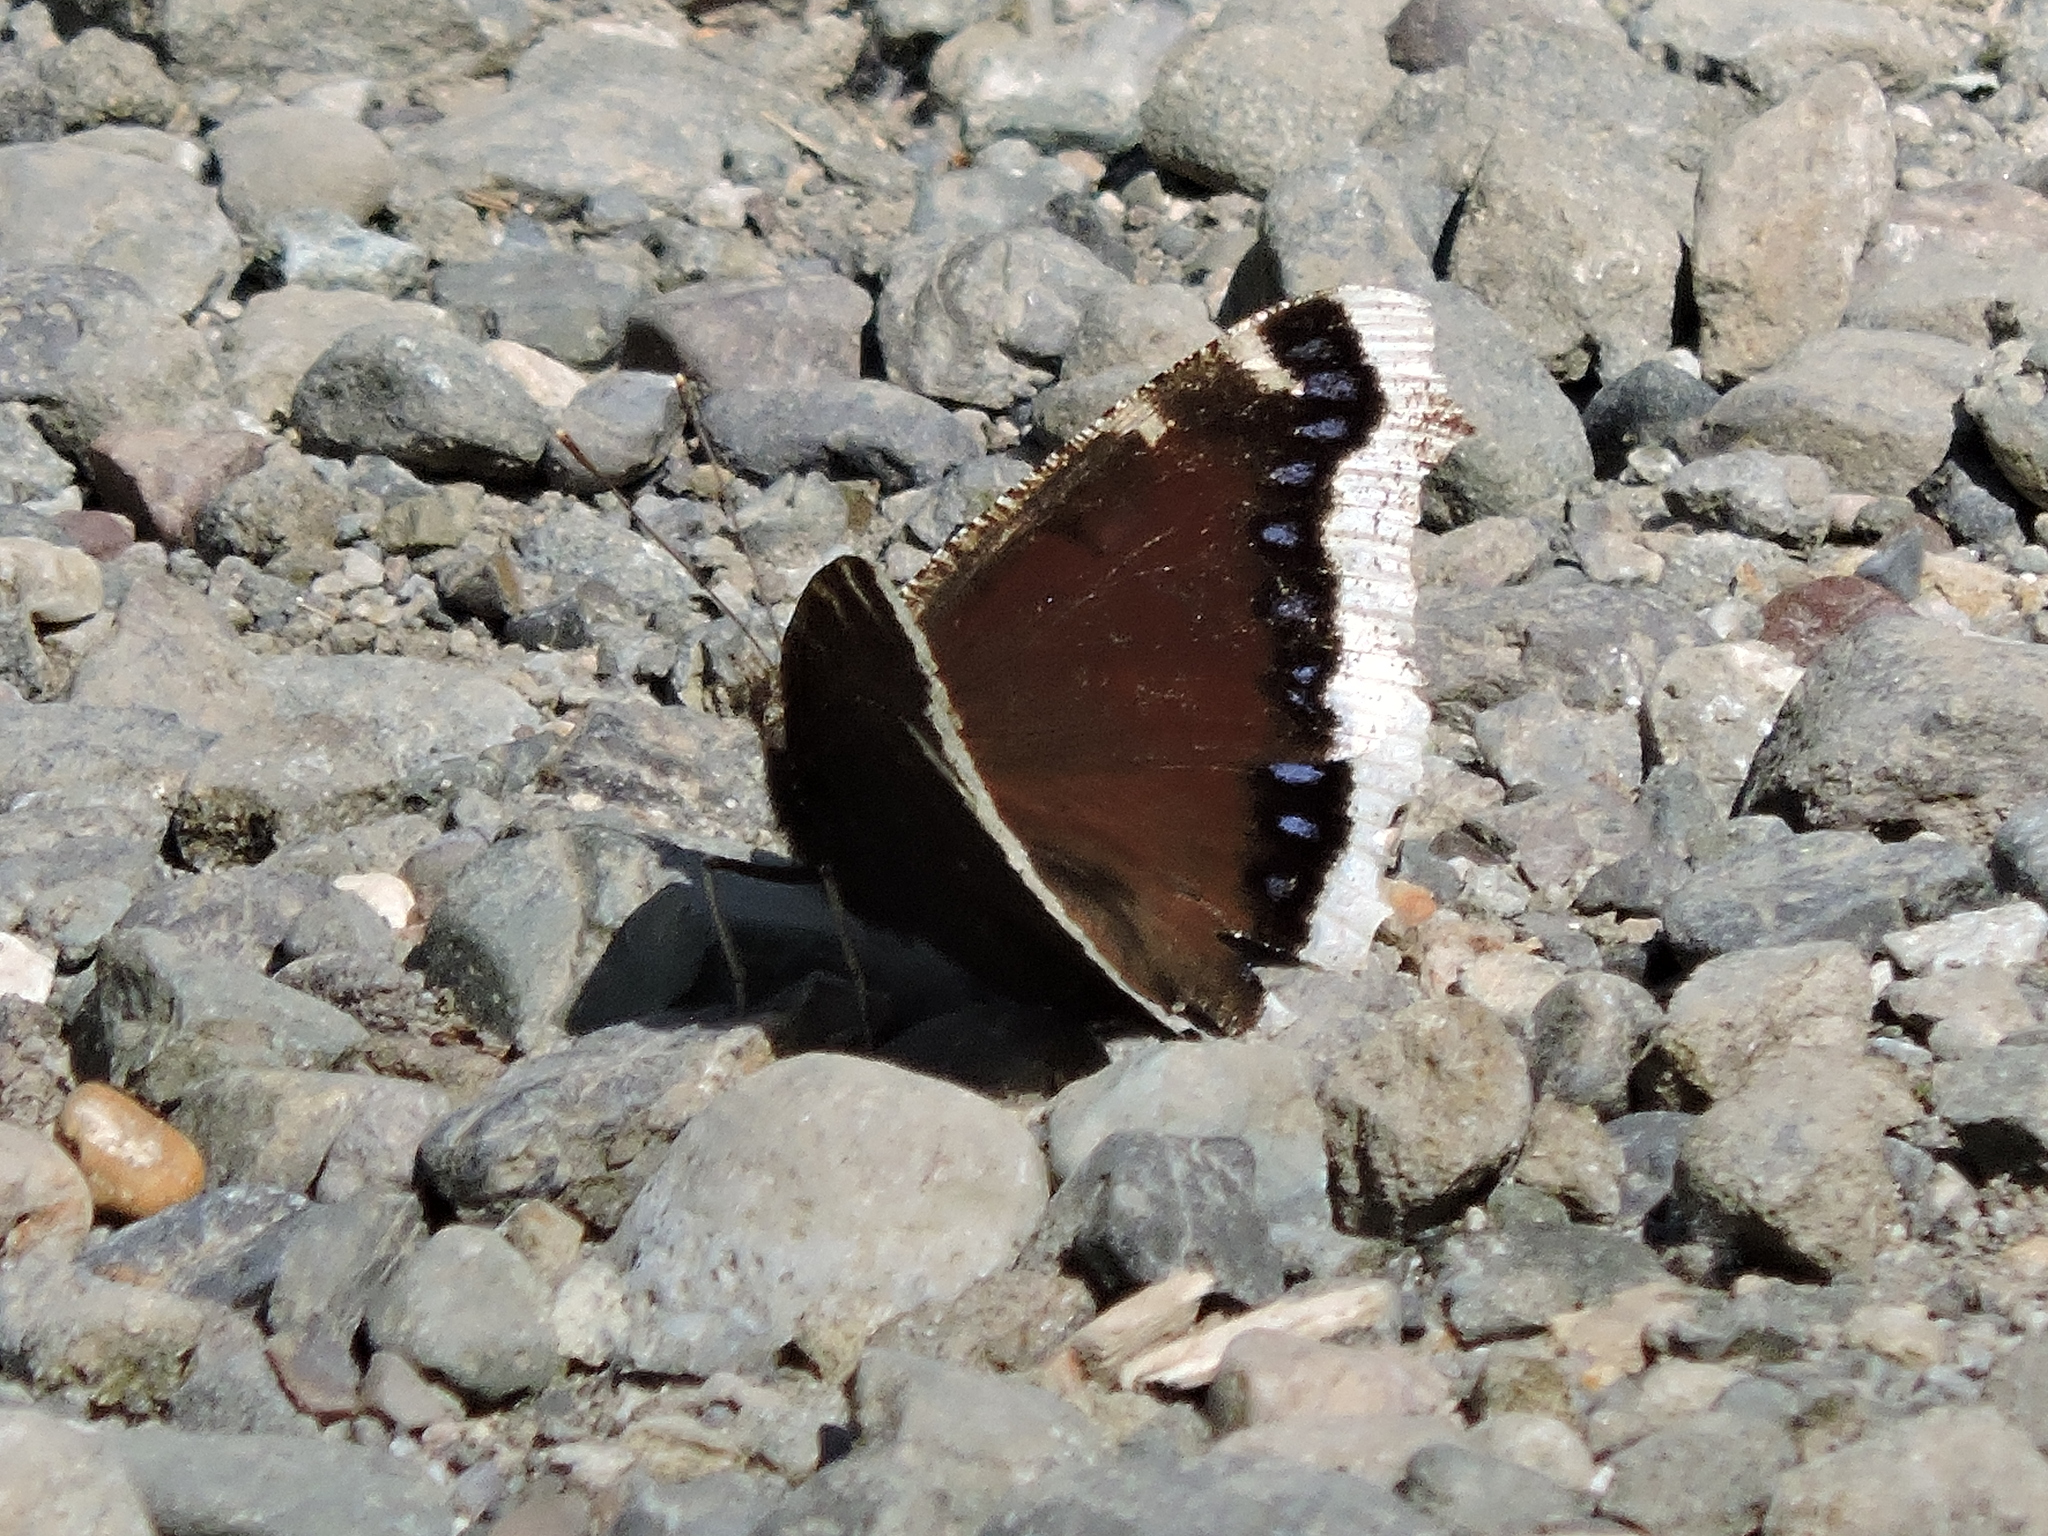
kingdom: Animalia
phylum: Arthropoda
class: Insecta
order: Lepidoptera
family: Nymphalidae
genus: Nymphalis
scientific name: Nymphalis antiopa
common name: Camberwell beauty
